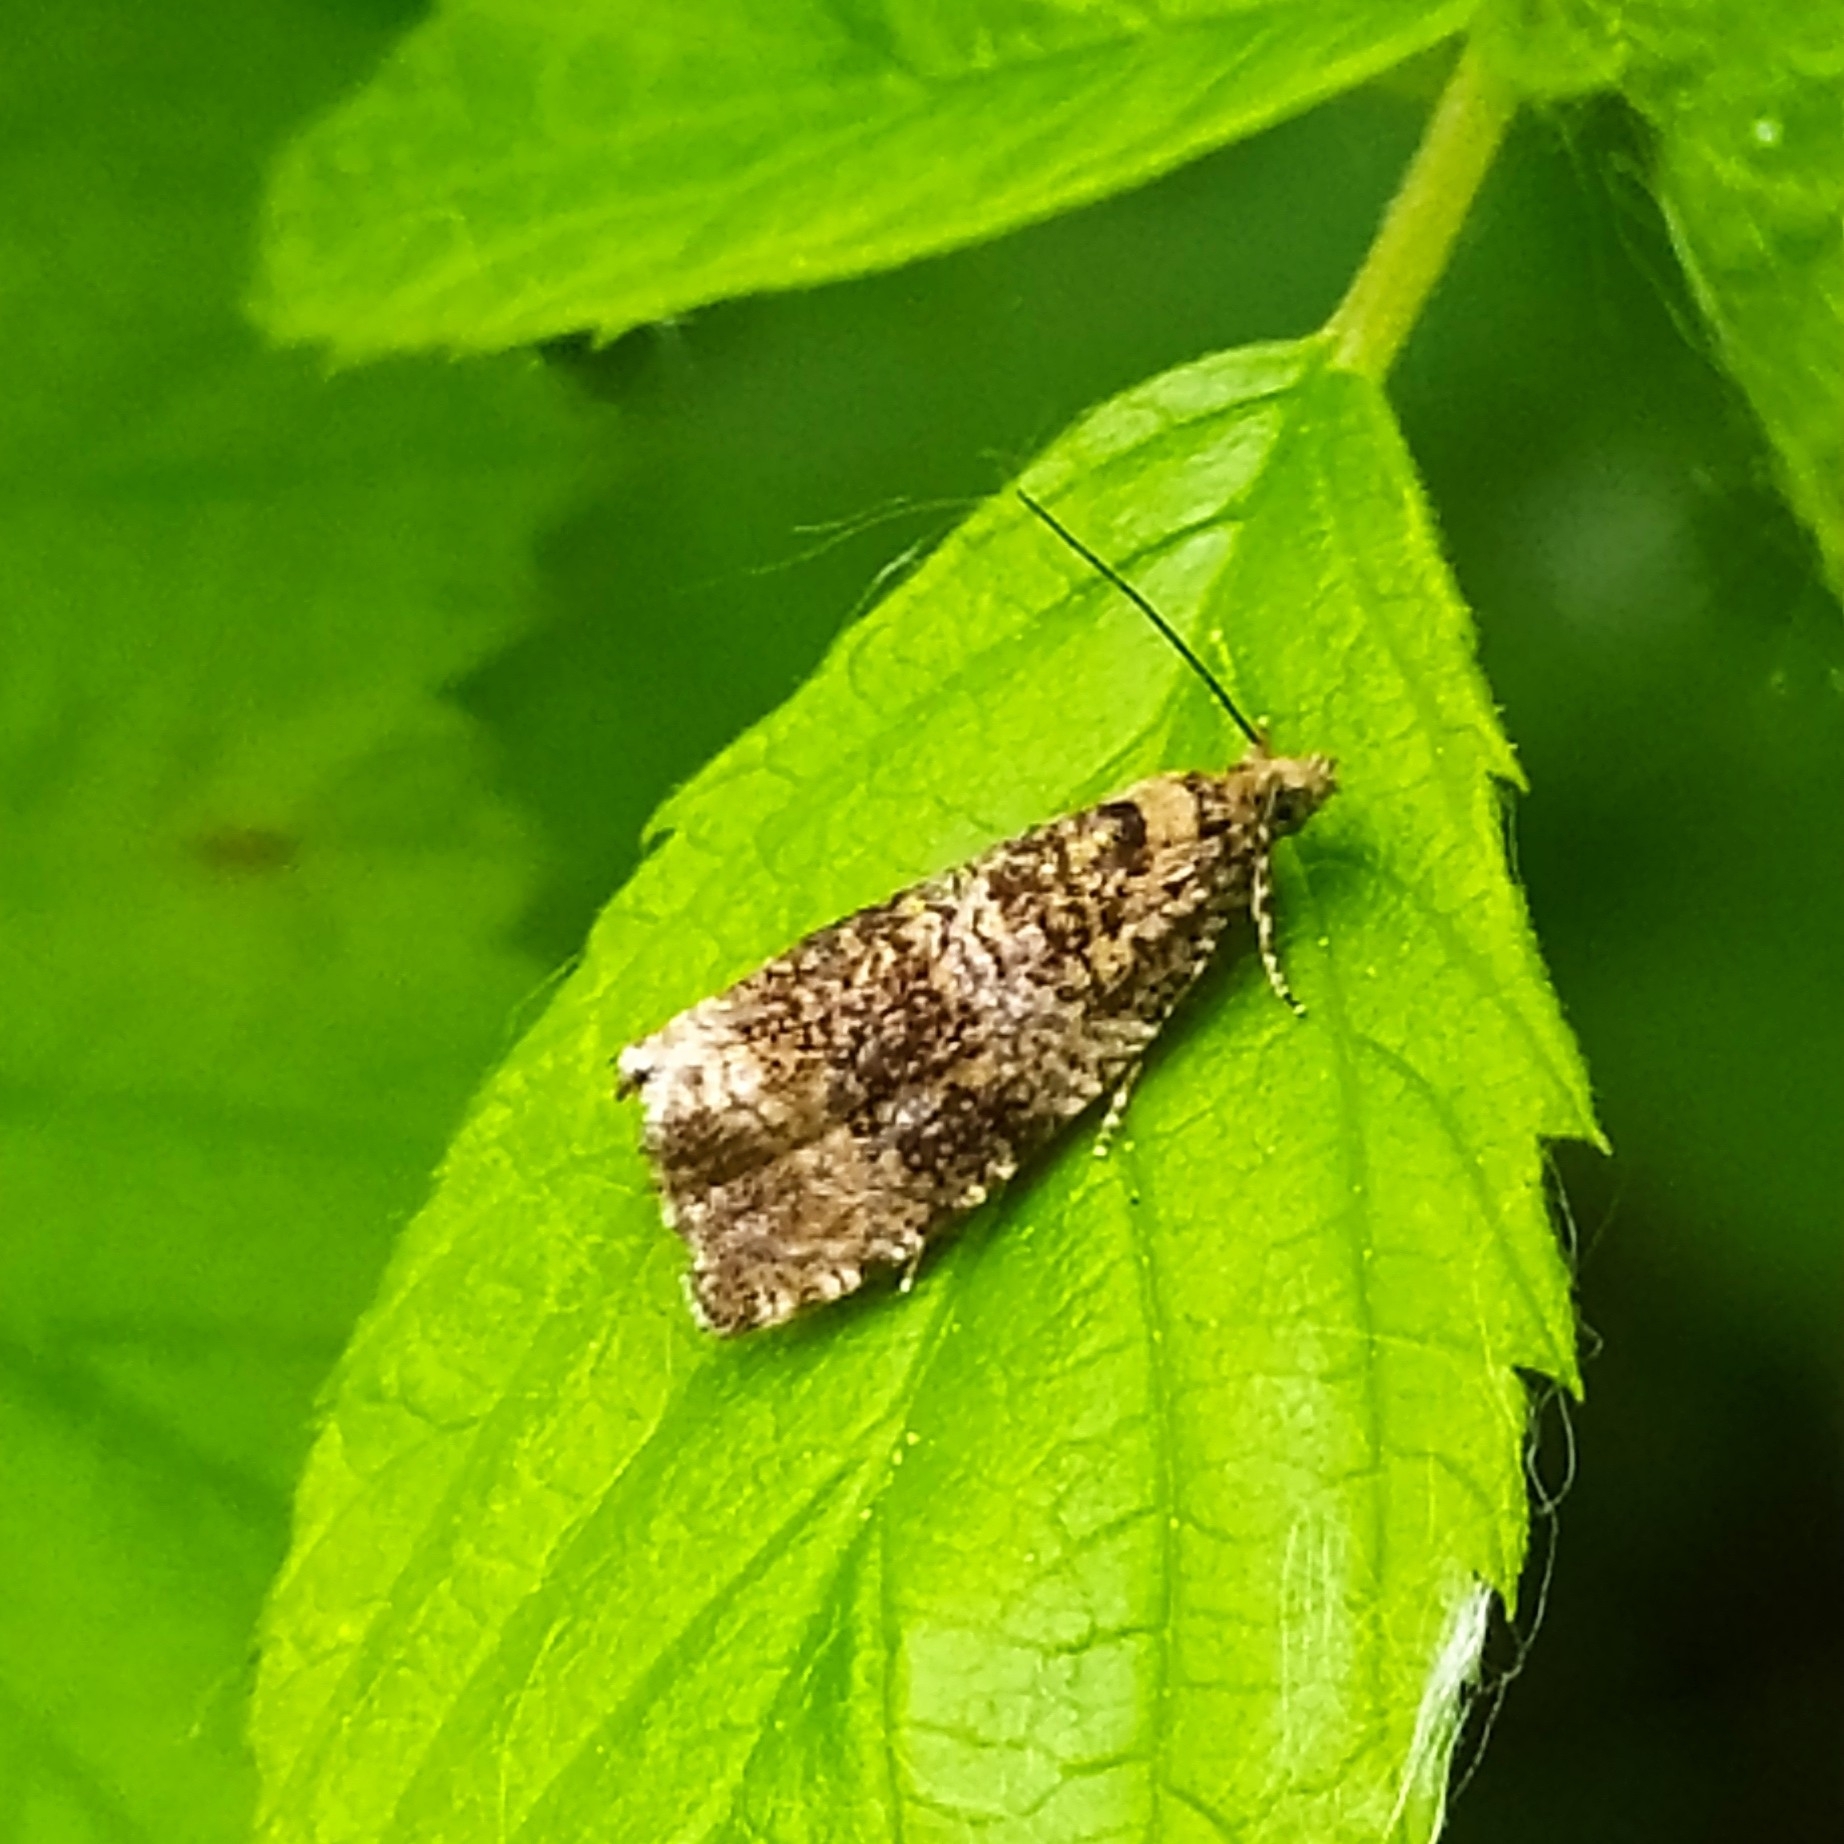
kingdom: Animalia
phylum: Arthropoda
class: Insecta
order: Lepidoptera
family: Tortricidae
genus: Syricoris
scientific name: Syricoris lacunana
